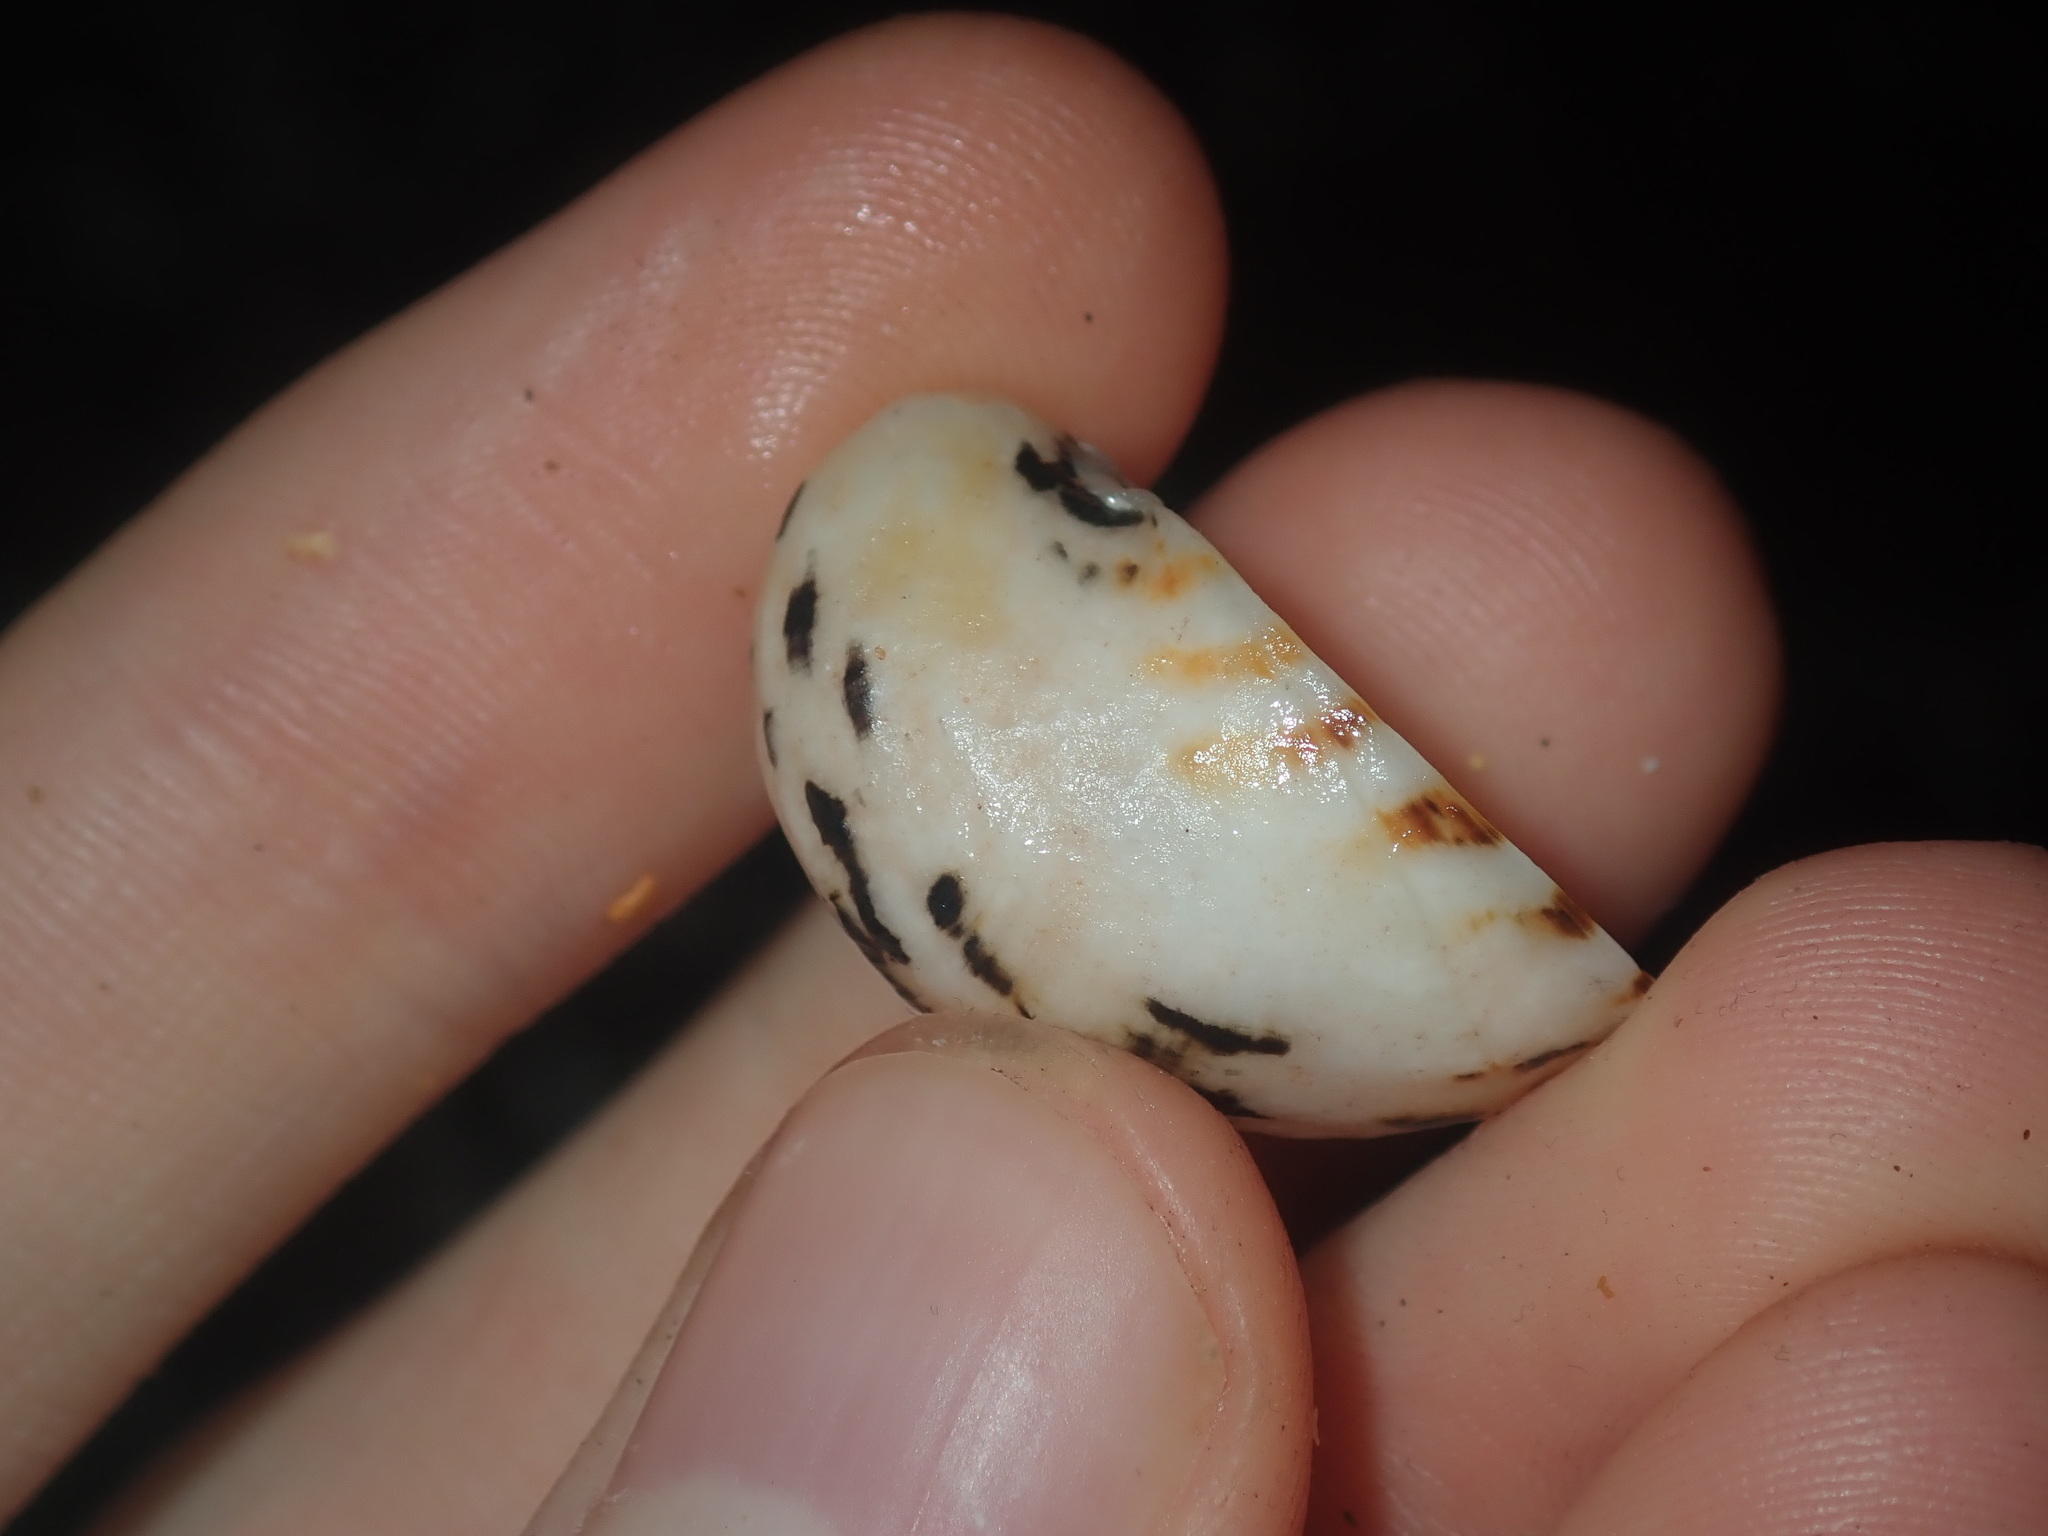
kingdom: Animalia
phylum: Mollusca
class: Gastropoda
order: Cycloneritida
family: Neritidae
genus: Nerita
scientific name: Nerita albicilla
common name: Blotched nerite
